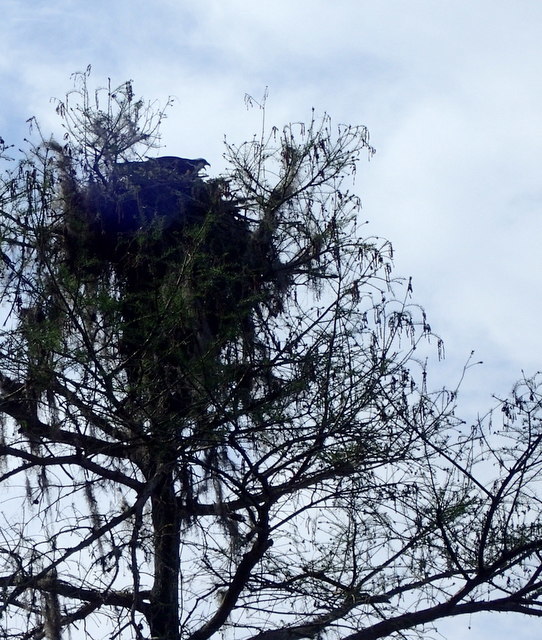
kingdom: Animalia
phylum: Chordata
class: Aves
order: Accipitriformes
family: Pandionidae
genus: Pandion
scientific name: Pandion haliaetus
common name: Osprey
